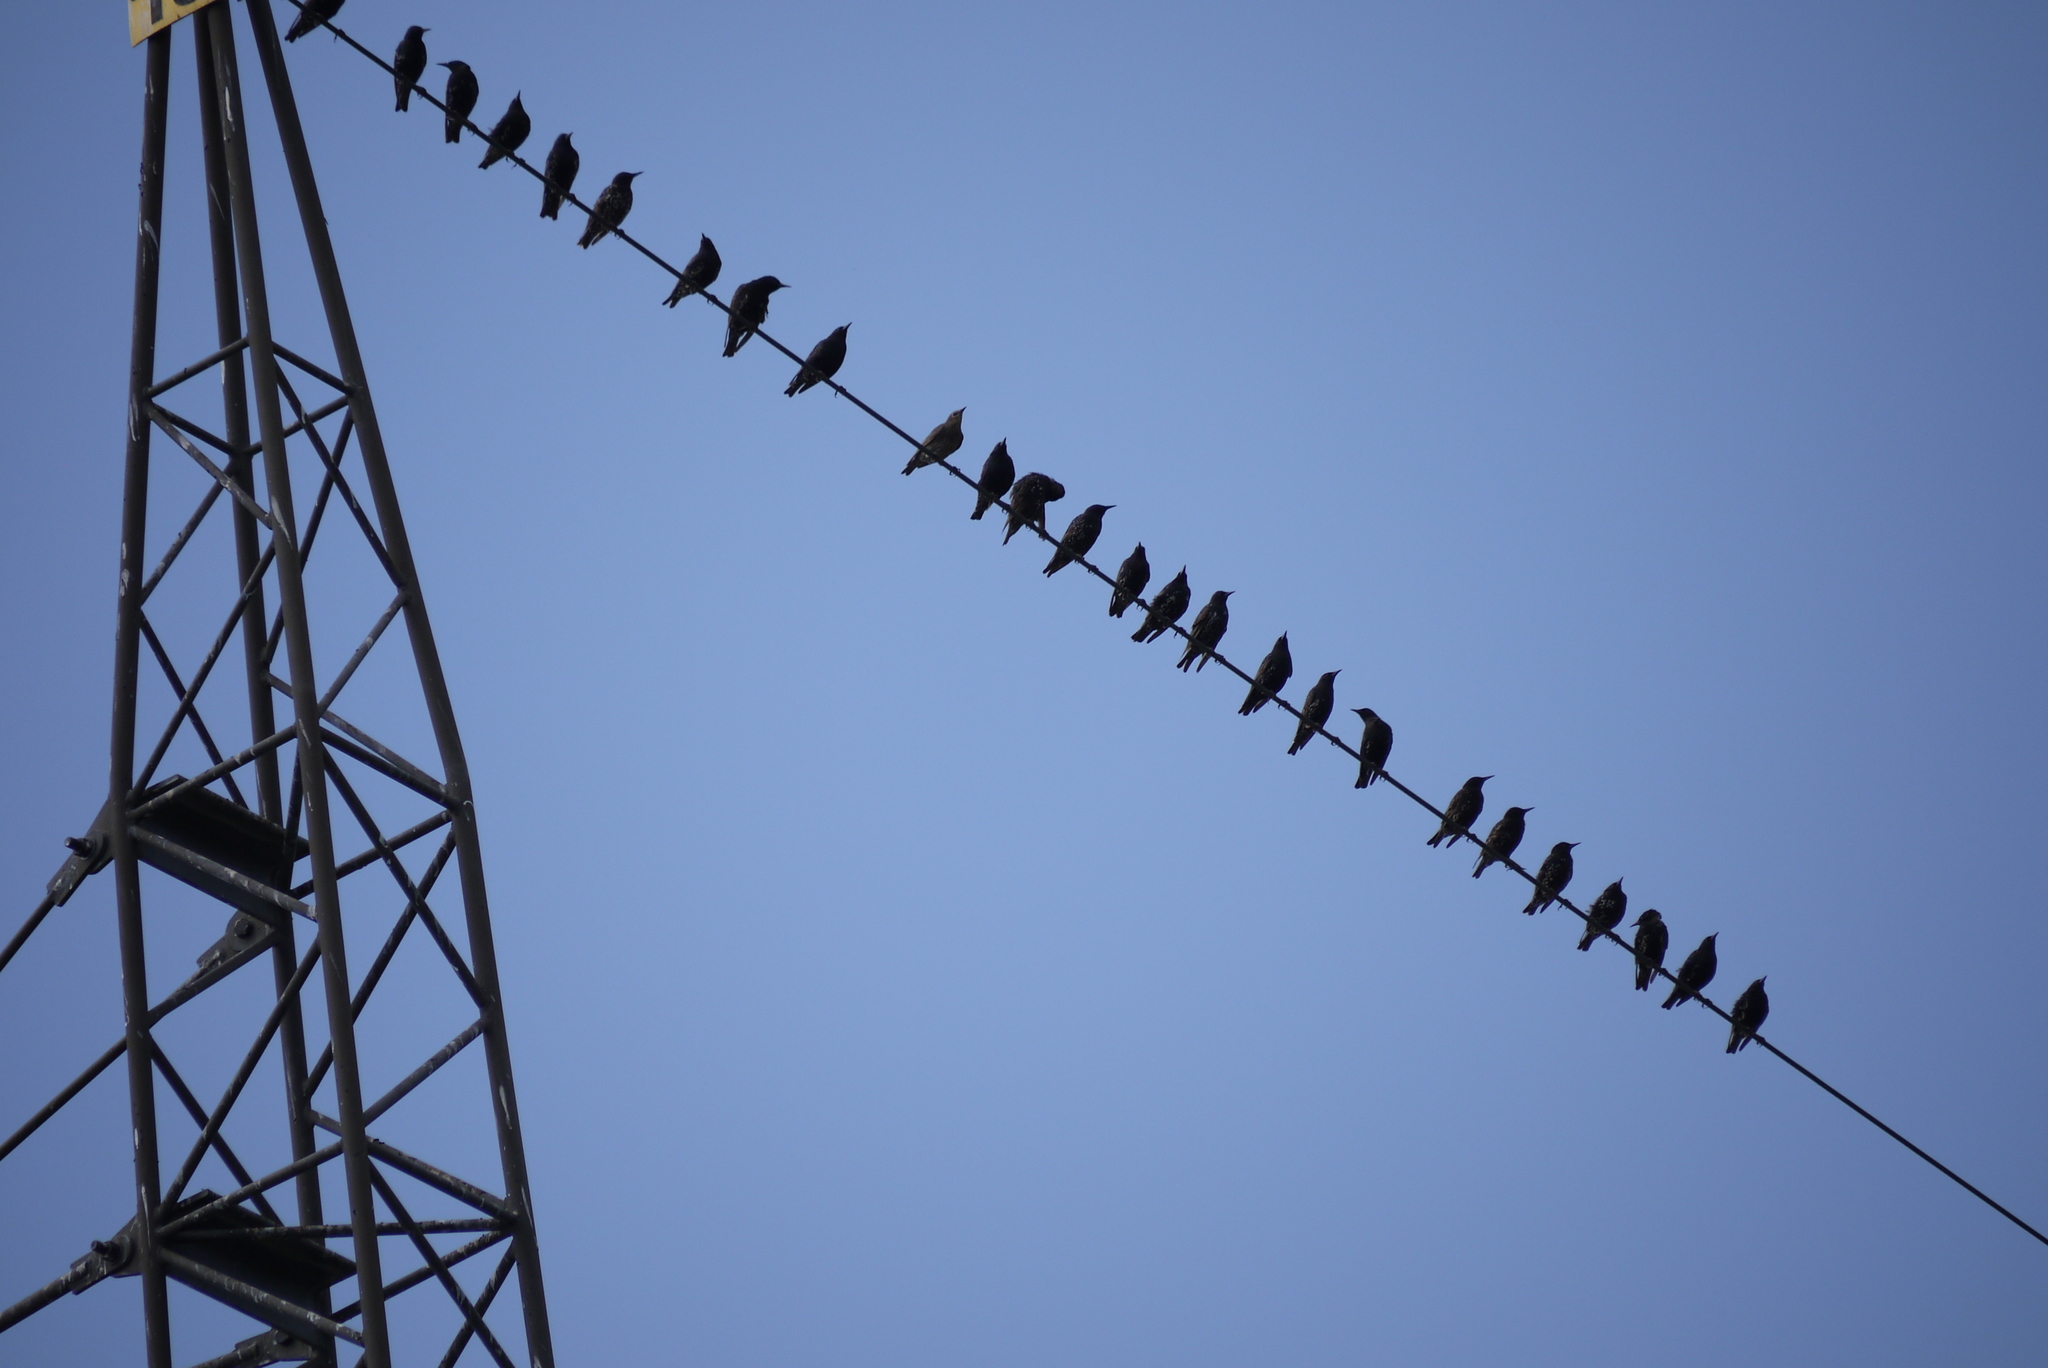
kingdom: Animalia
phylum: Chordata
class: Aves
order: Passeriformes
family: Sturnidae
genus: Sturnus
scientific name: Sturnus vulgaris
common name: Common starling
